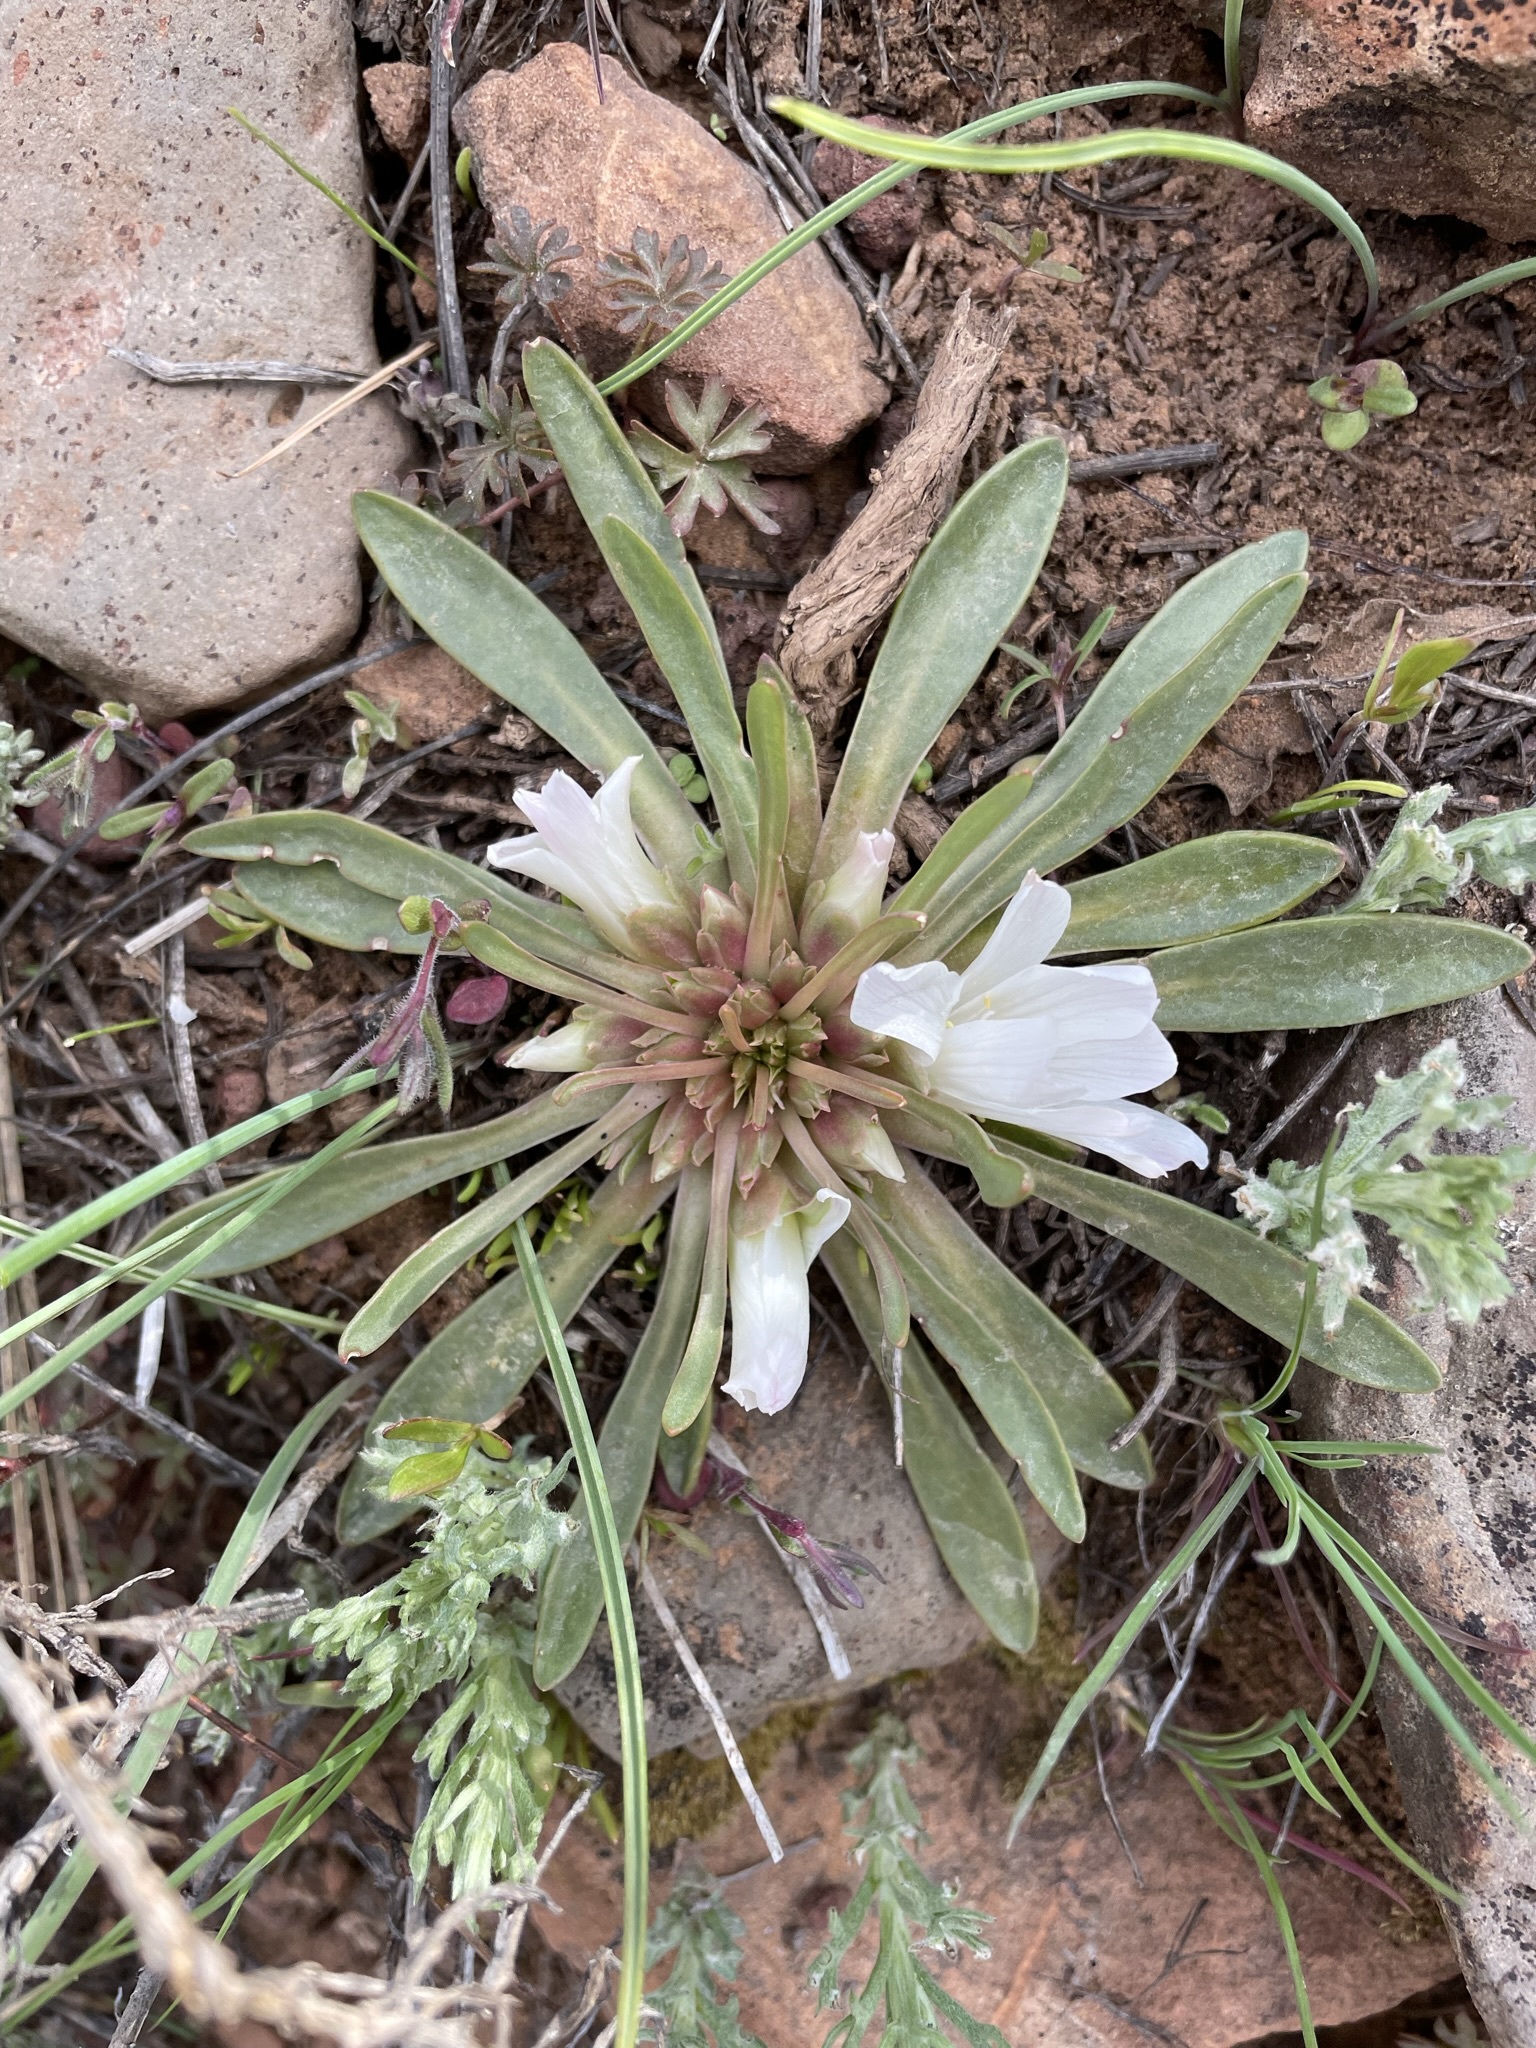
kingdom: Plantae
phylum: Tracheophyta
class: Magnoliopsida
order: Caryophyllales
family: Montiaceae
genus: Lewisia
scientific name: Lewisia brachycalyx
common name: Short-sepal lewisia
